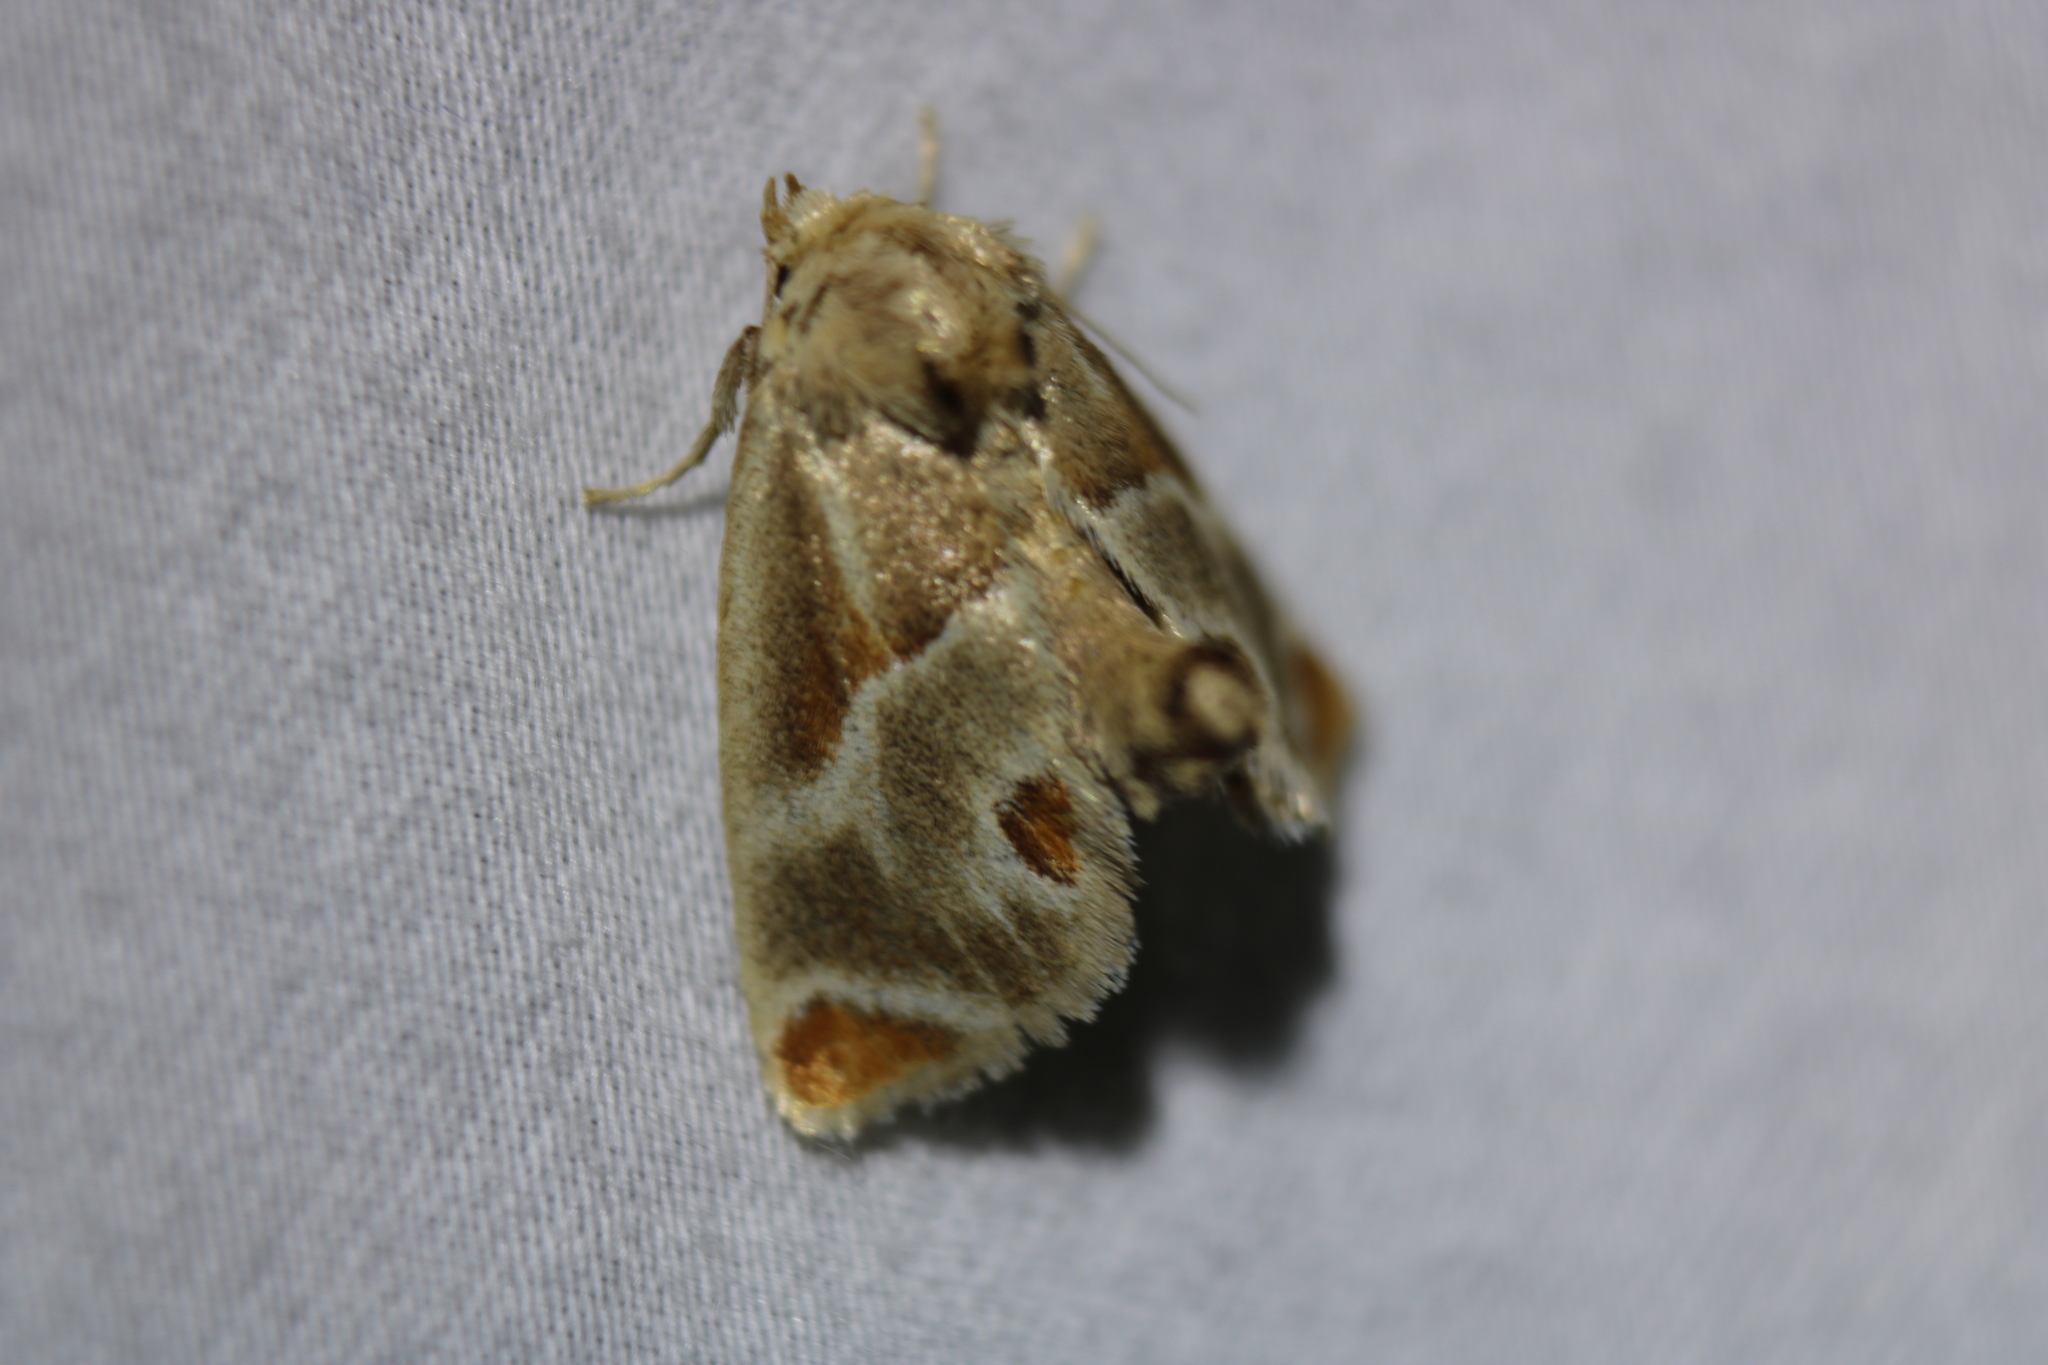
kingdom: Animalia
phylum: Arthropoda
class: Insecta
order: Lepidoptera
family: Limacodidae
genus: Apoda
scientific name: Apoda biguttata
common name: Shagreened slug moth
